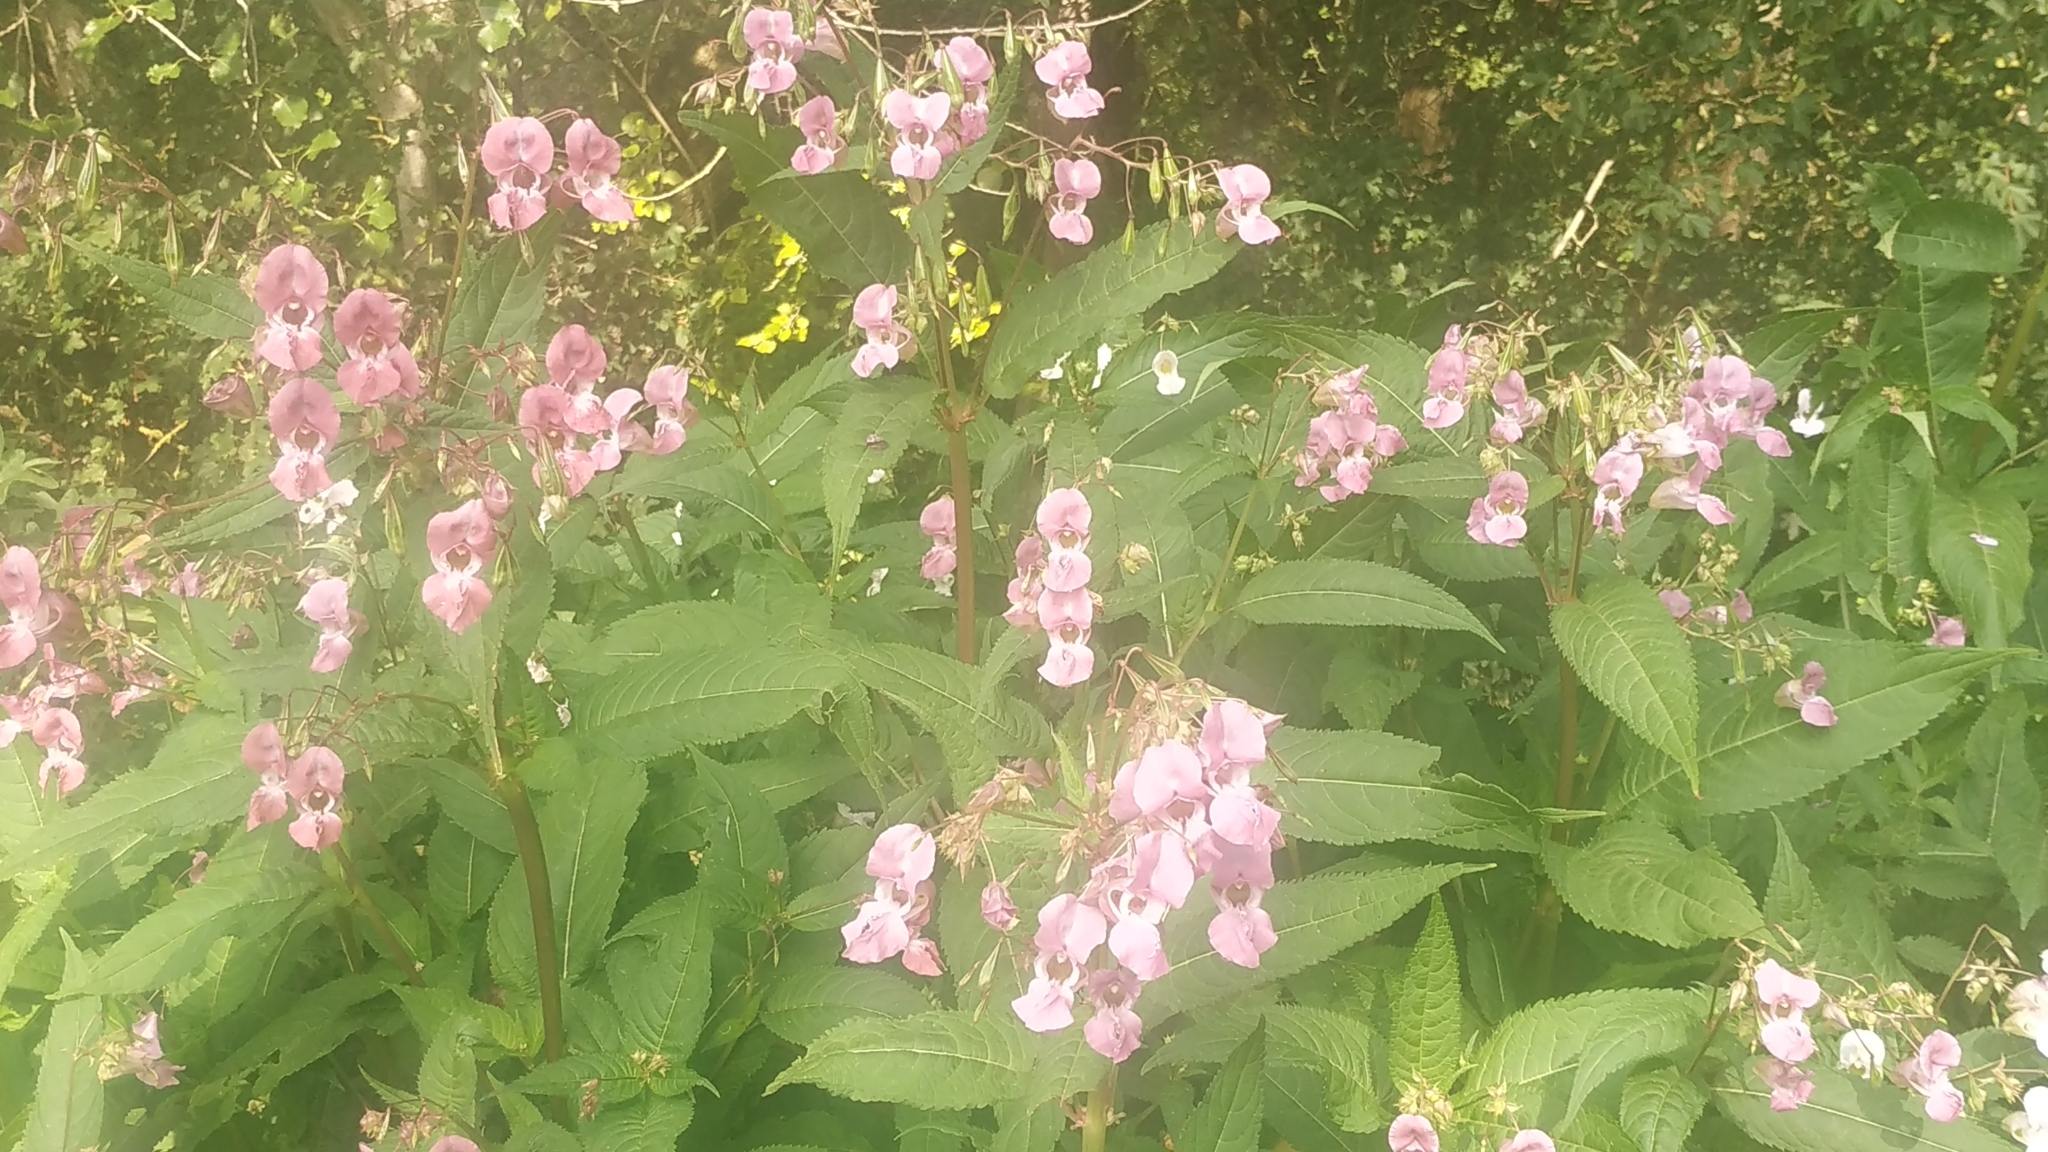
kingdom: Plantae
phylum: Tracheophyta
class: Magnoliopsida
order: Ericales
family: Balsaminaceae
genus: Impatiens
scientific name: Impatiens glandulifera
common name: Himalayan balsam
